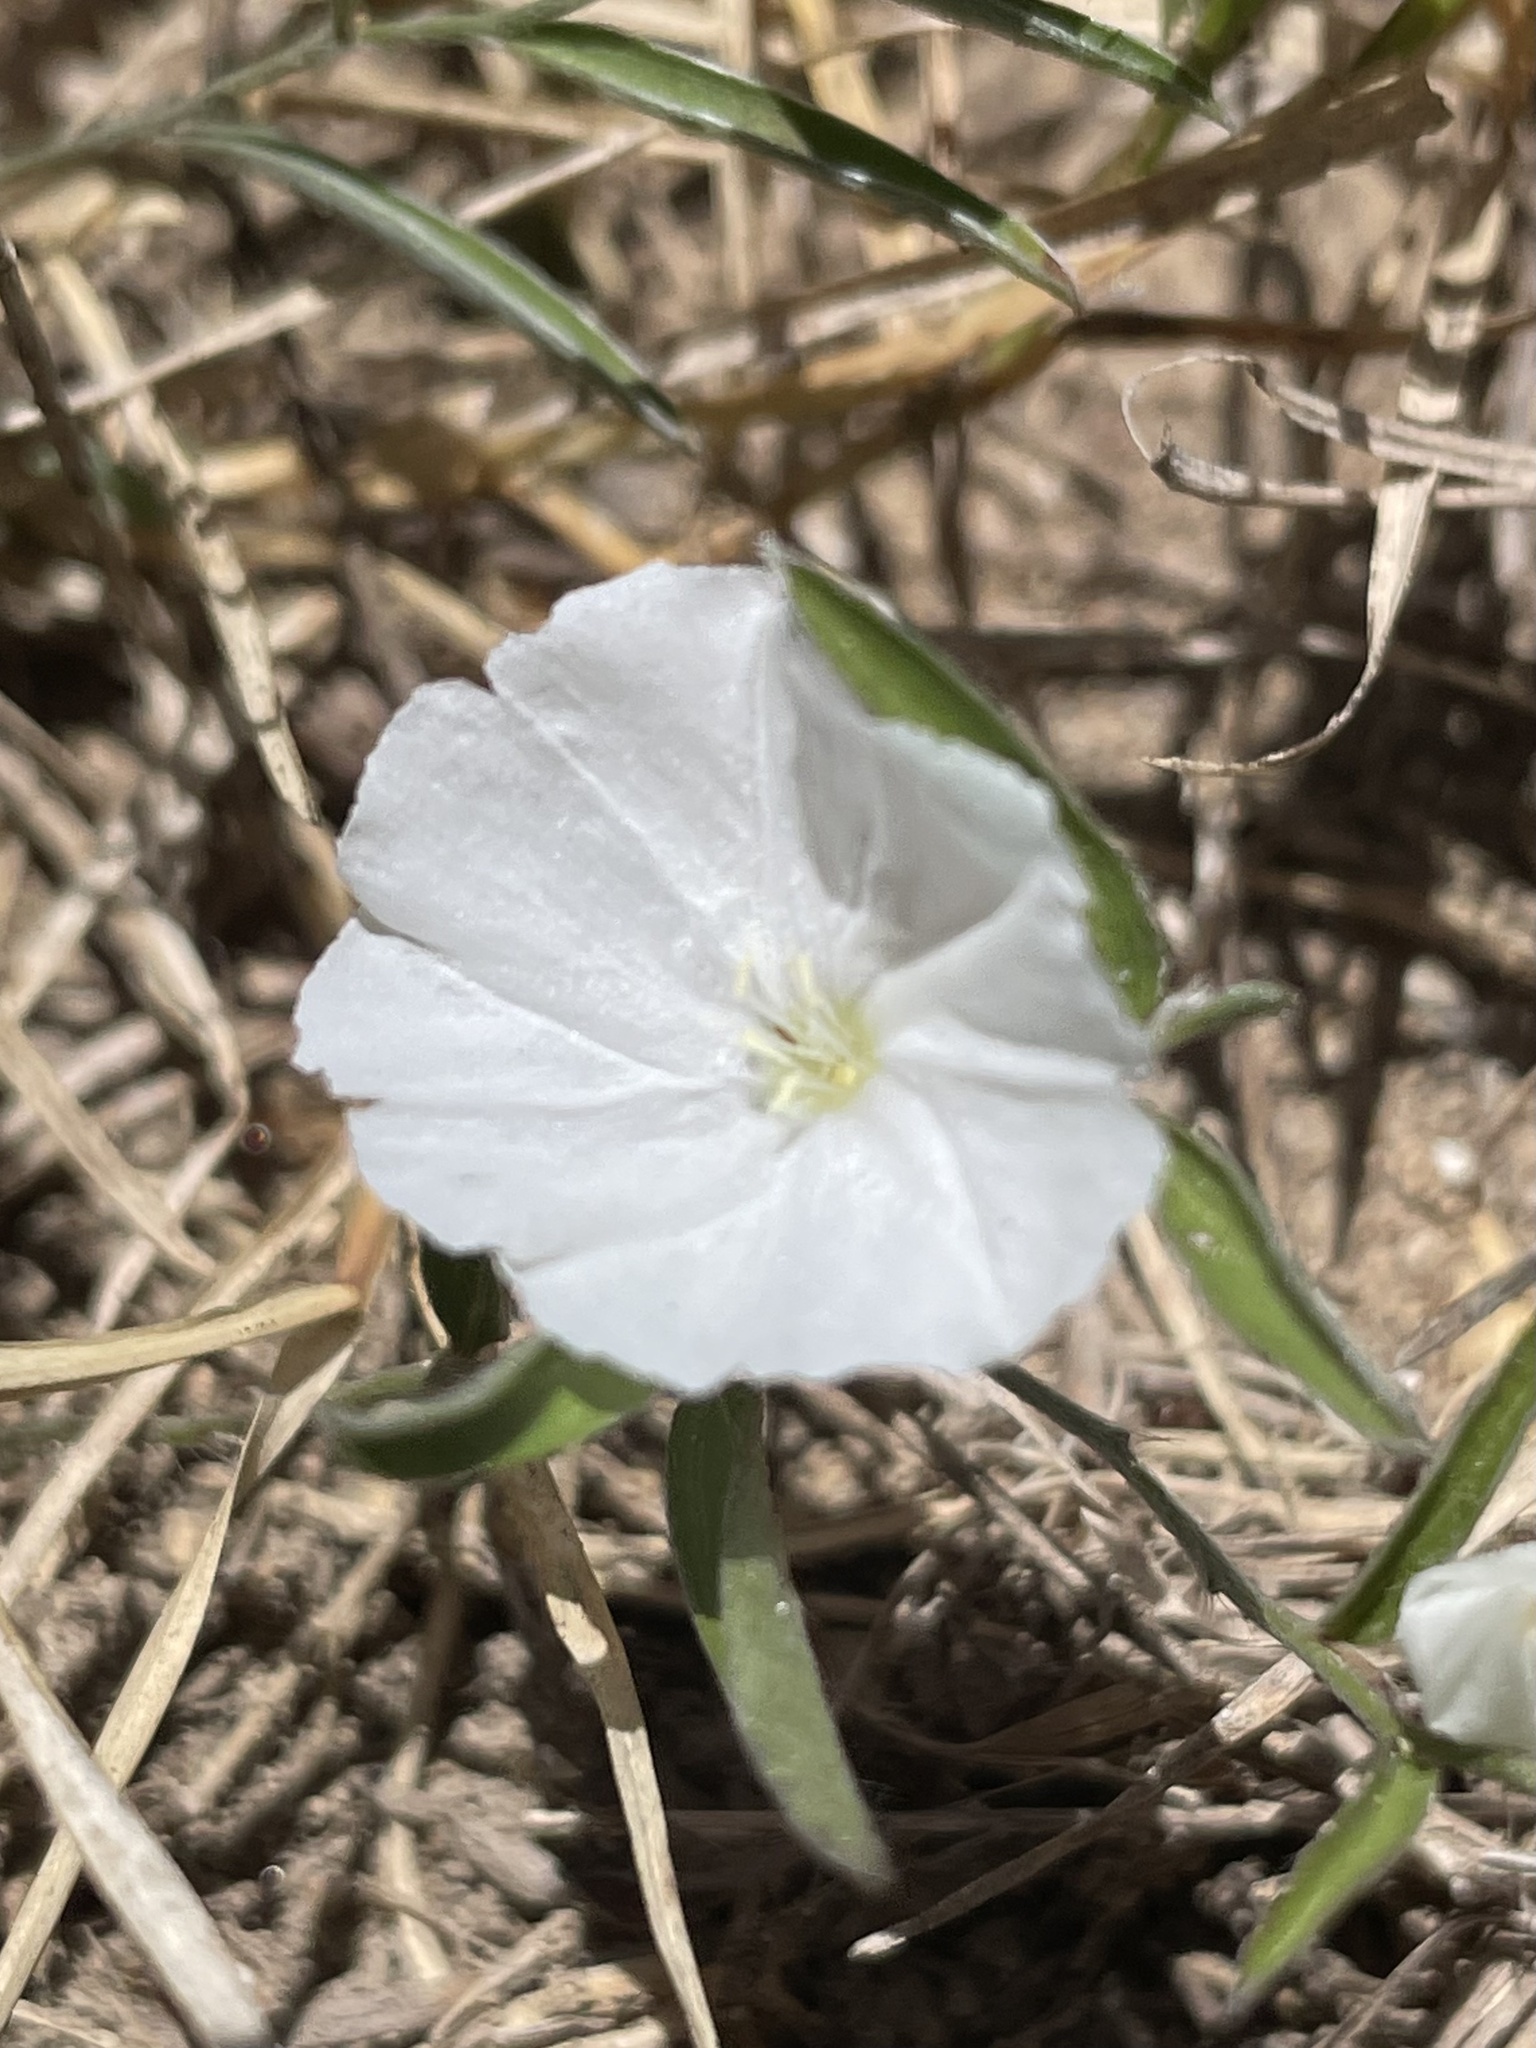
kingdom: Plantae
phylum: Tracheophyta
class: Magnoliopsida
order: Solanales
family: Convolvulaceae
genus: Evolvulus
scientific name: Evolvulus sericeus
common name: Blue dots
